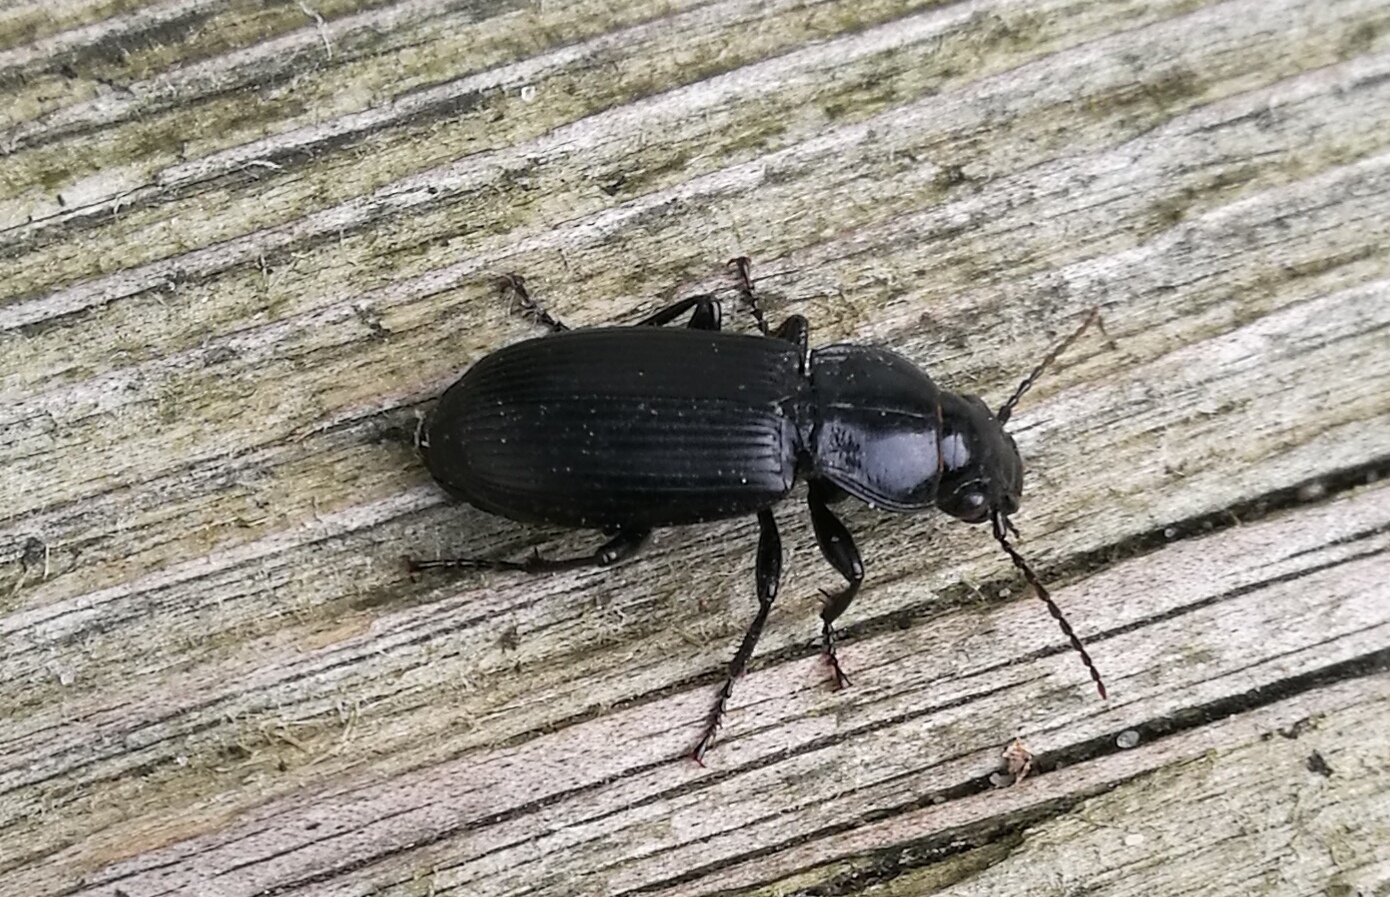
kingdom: Animalia
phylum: Arthropoda
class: Insecta
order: Coleoptera
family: Carabidae
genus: Pterostichus
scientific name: Pterostichus melanarius
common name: European dark harp ground beetle
